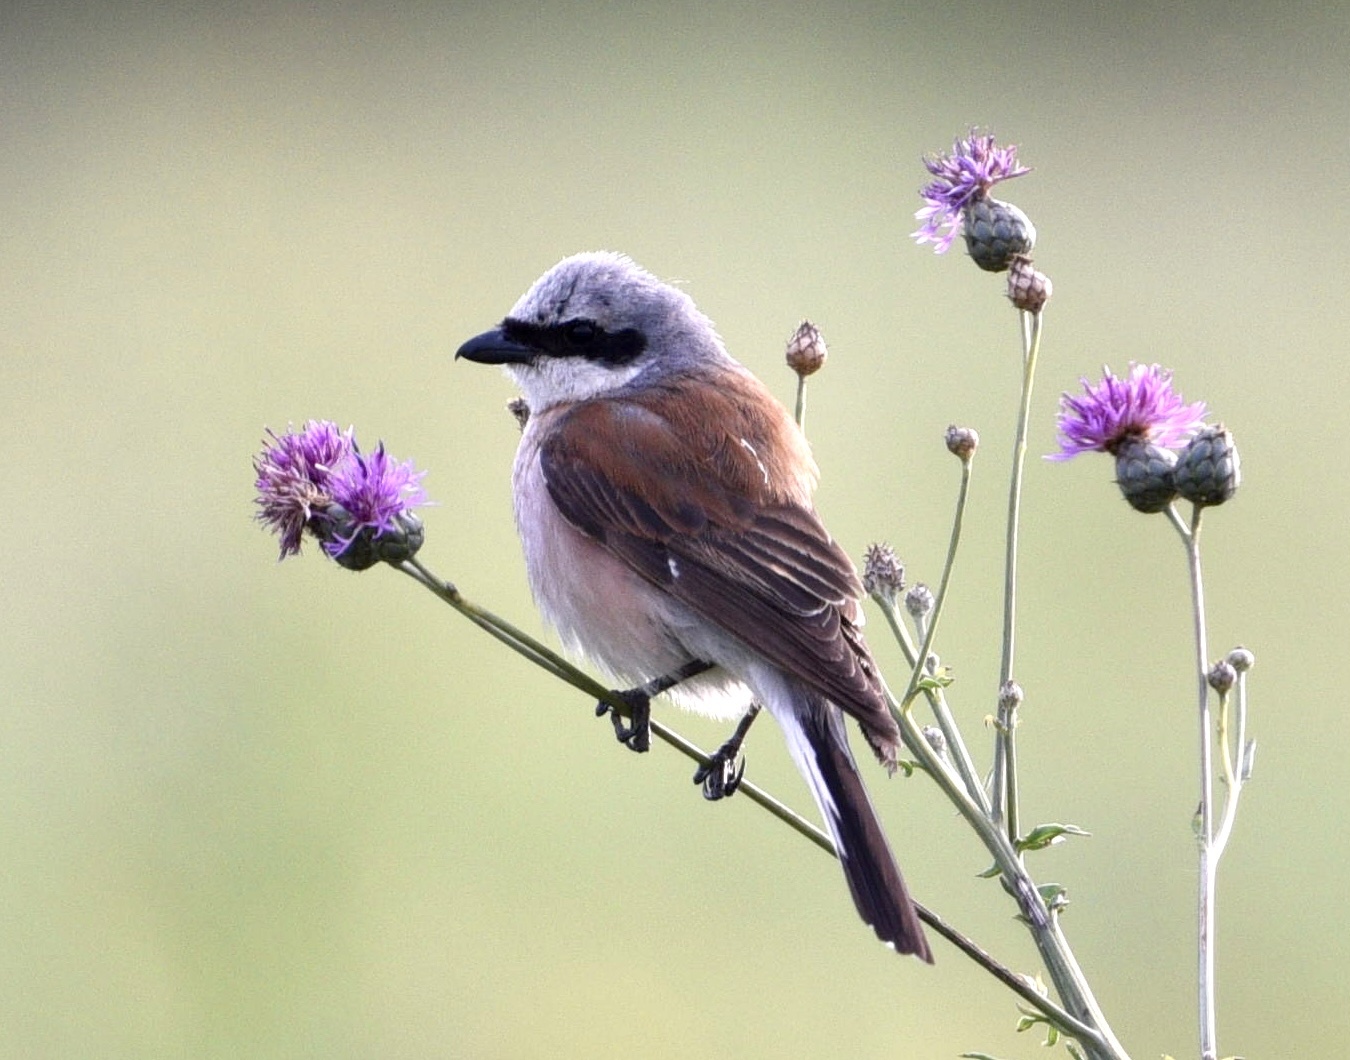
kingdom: Animalia
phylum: Chordata
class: Aves
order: Passeriformes
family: Laniidae
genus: Lanius
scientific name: Lanius collurio
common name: Red-backed shrike
